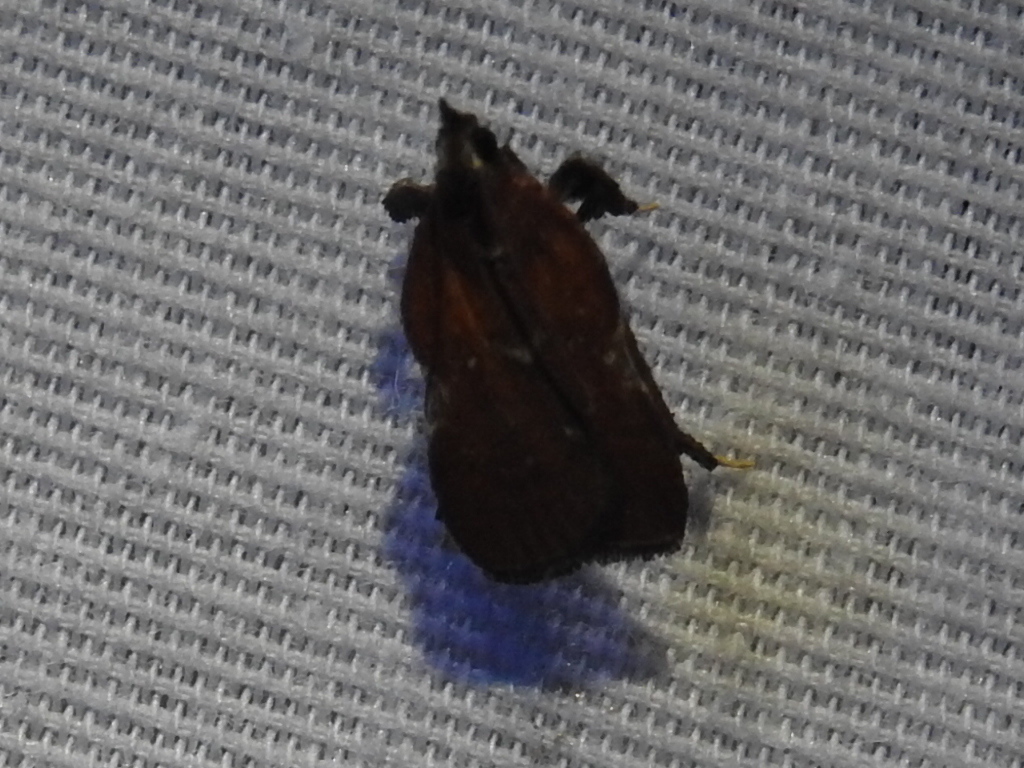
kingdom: Animalia
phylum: Arthropoda
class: Insecta
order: Lepidoptera
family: Pyralidae
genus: Galasa
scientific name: Galasa nigrinodis
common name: Boxwood leaftier moth
